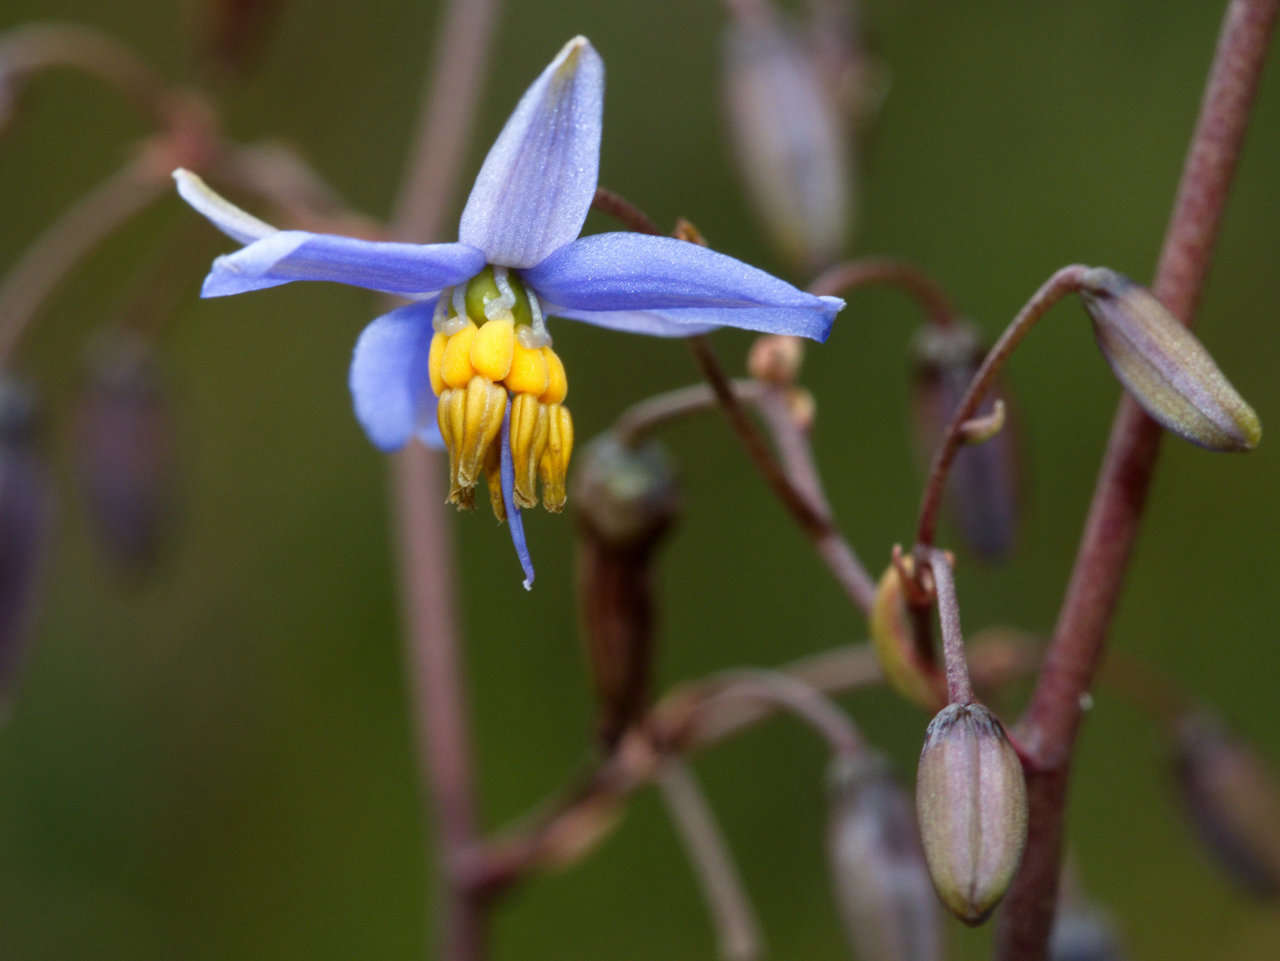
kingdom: Plantae
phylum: Tracheophyta
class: Liliopsida
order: Asparagales
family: Asphodelaceae
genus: Dianella
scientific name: Dianella callicarpa
